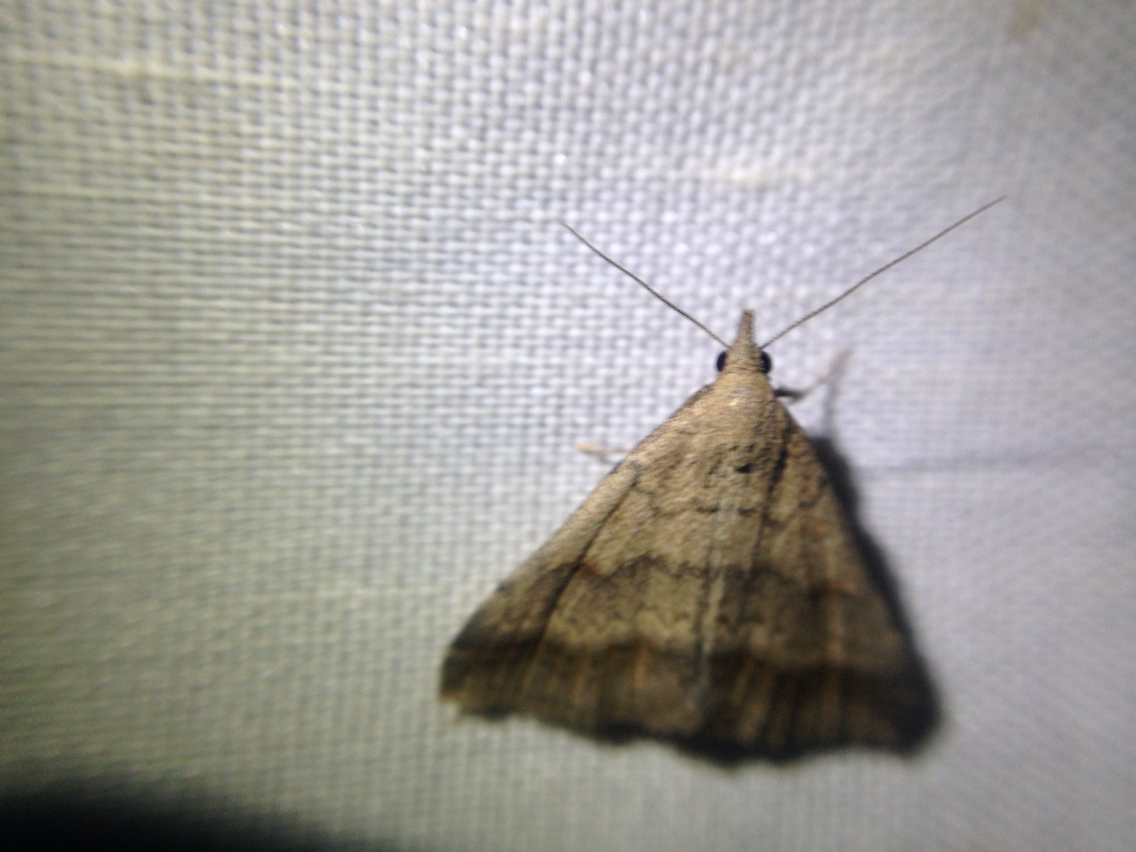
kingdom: Animalia
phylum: Arthropoda
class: Insecta
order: Lepidoptera
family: Erebidae
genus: Tetanolita
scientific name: Tetanolita palligera
